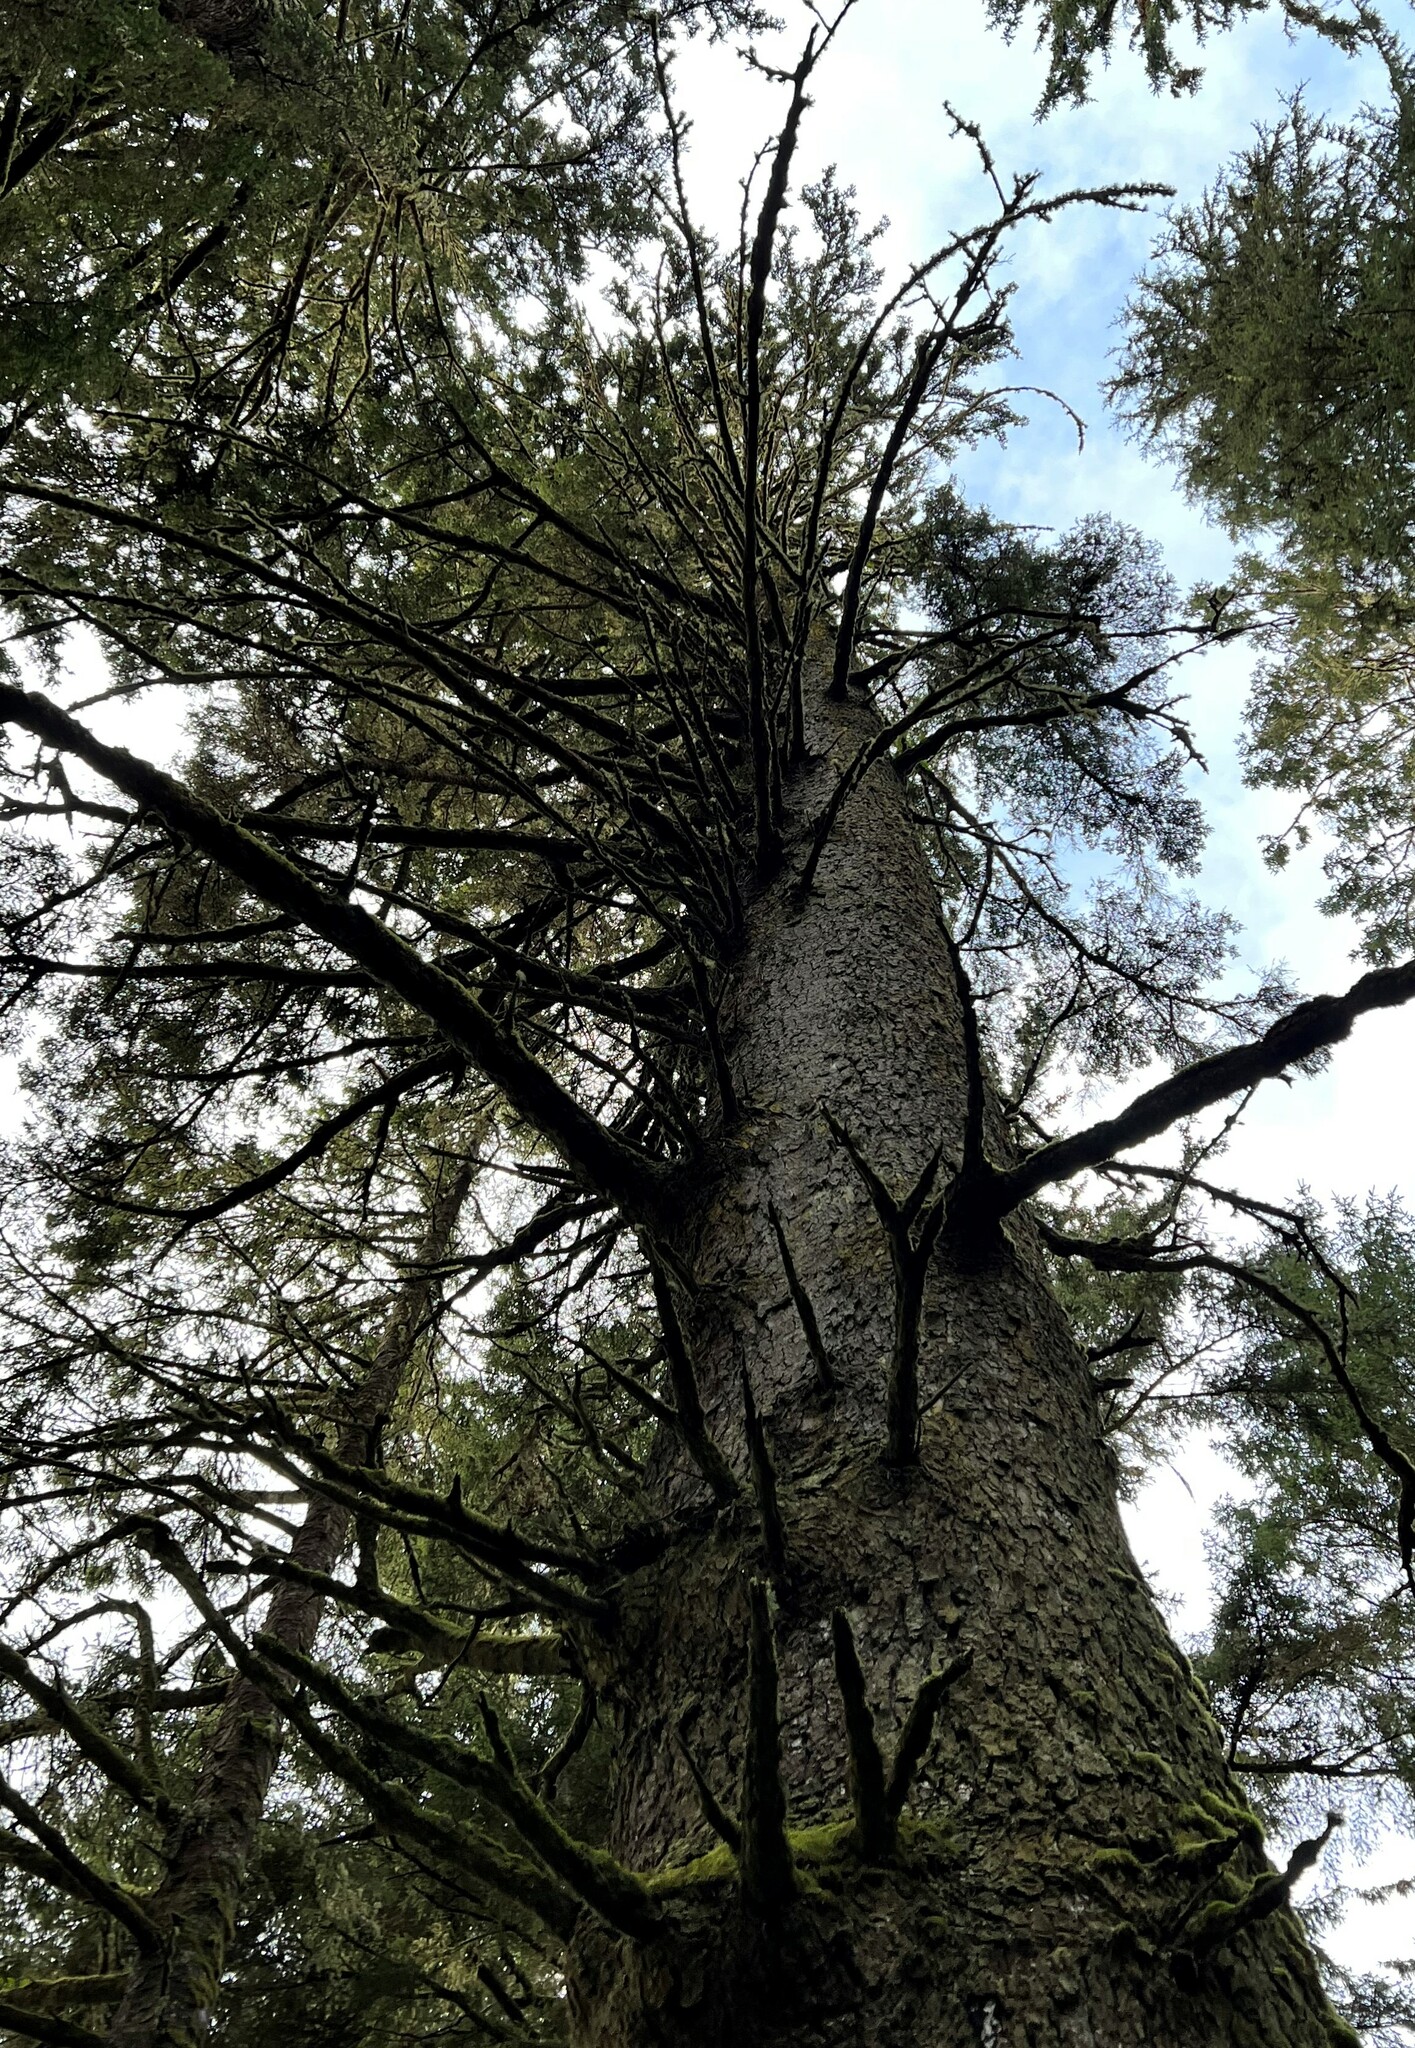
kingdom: Plantae
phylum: Tracheophyta
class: Pinopsida
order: Pinales
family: Pinaceae
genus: Picea
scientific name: Picea sitchensis
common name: Sitka spruce
